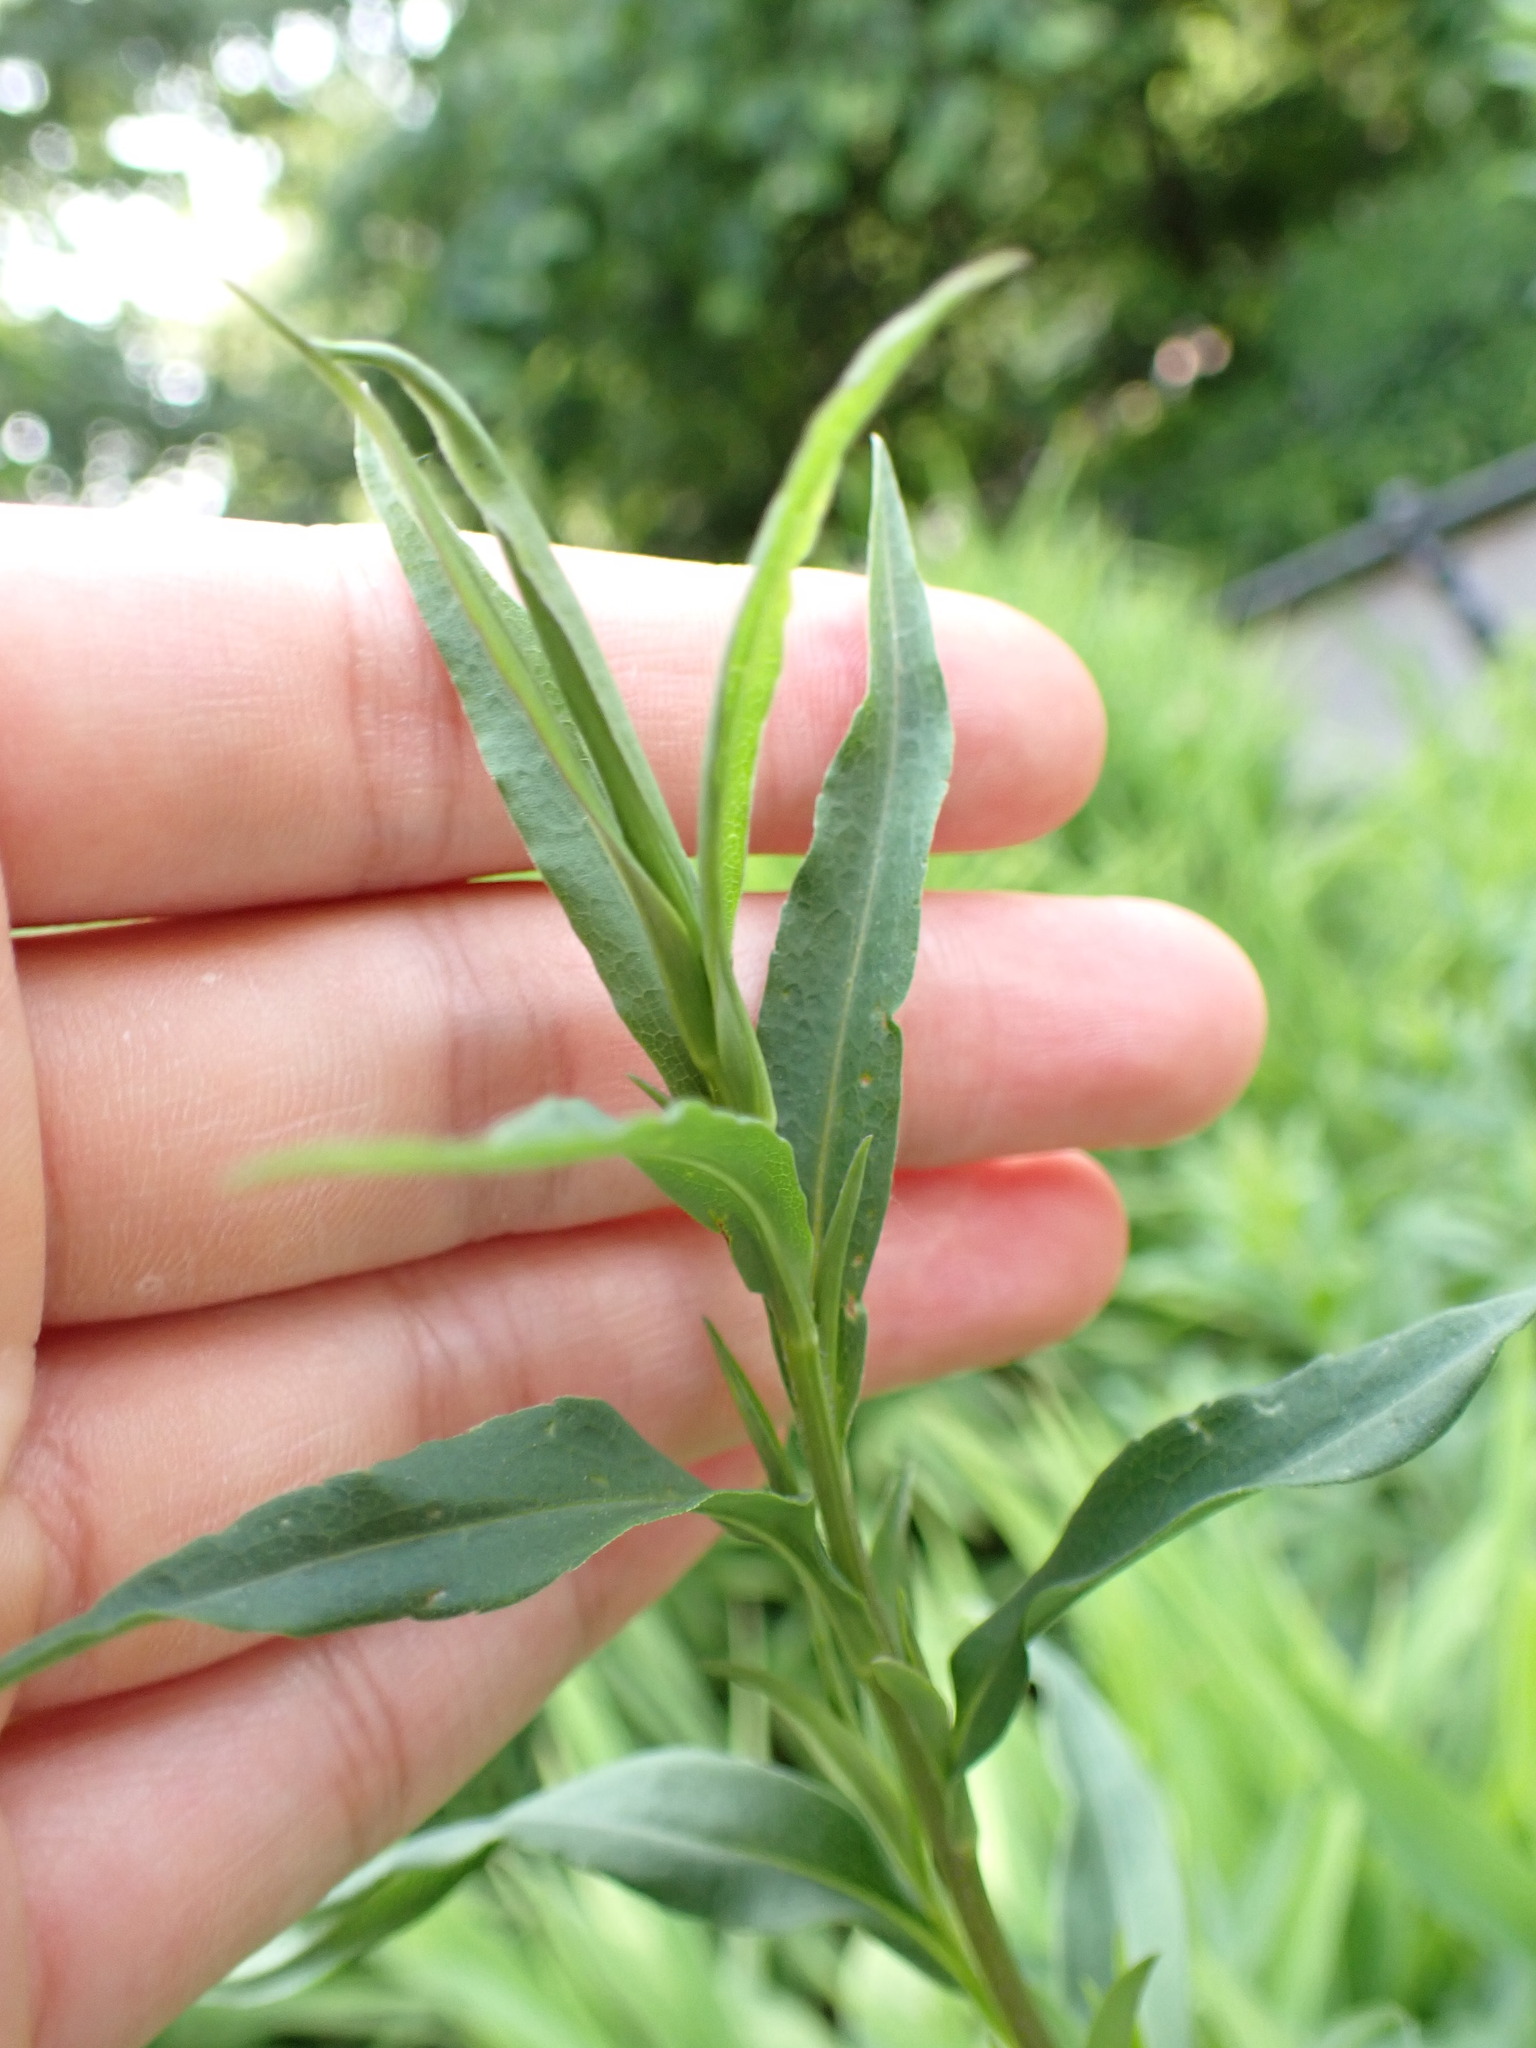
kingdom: Plantae
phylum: Tracheophyta
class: Magnoliopsida
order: Asterales
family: Asteraceae
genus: Solidago
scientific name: Solidago canadensis
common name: Canada goldenrod
